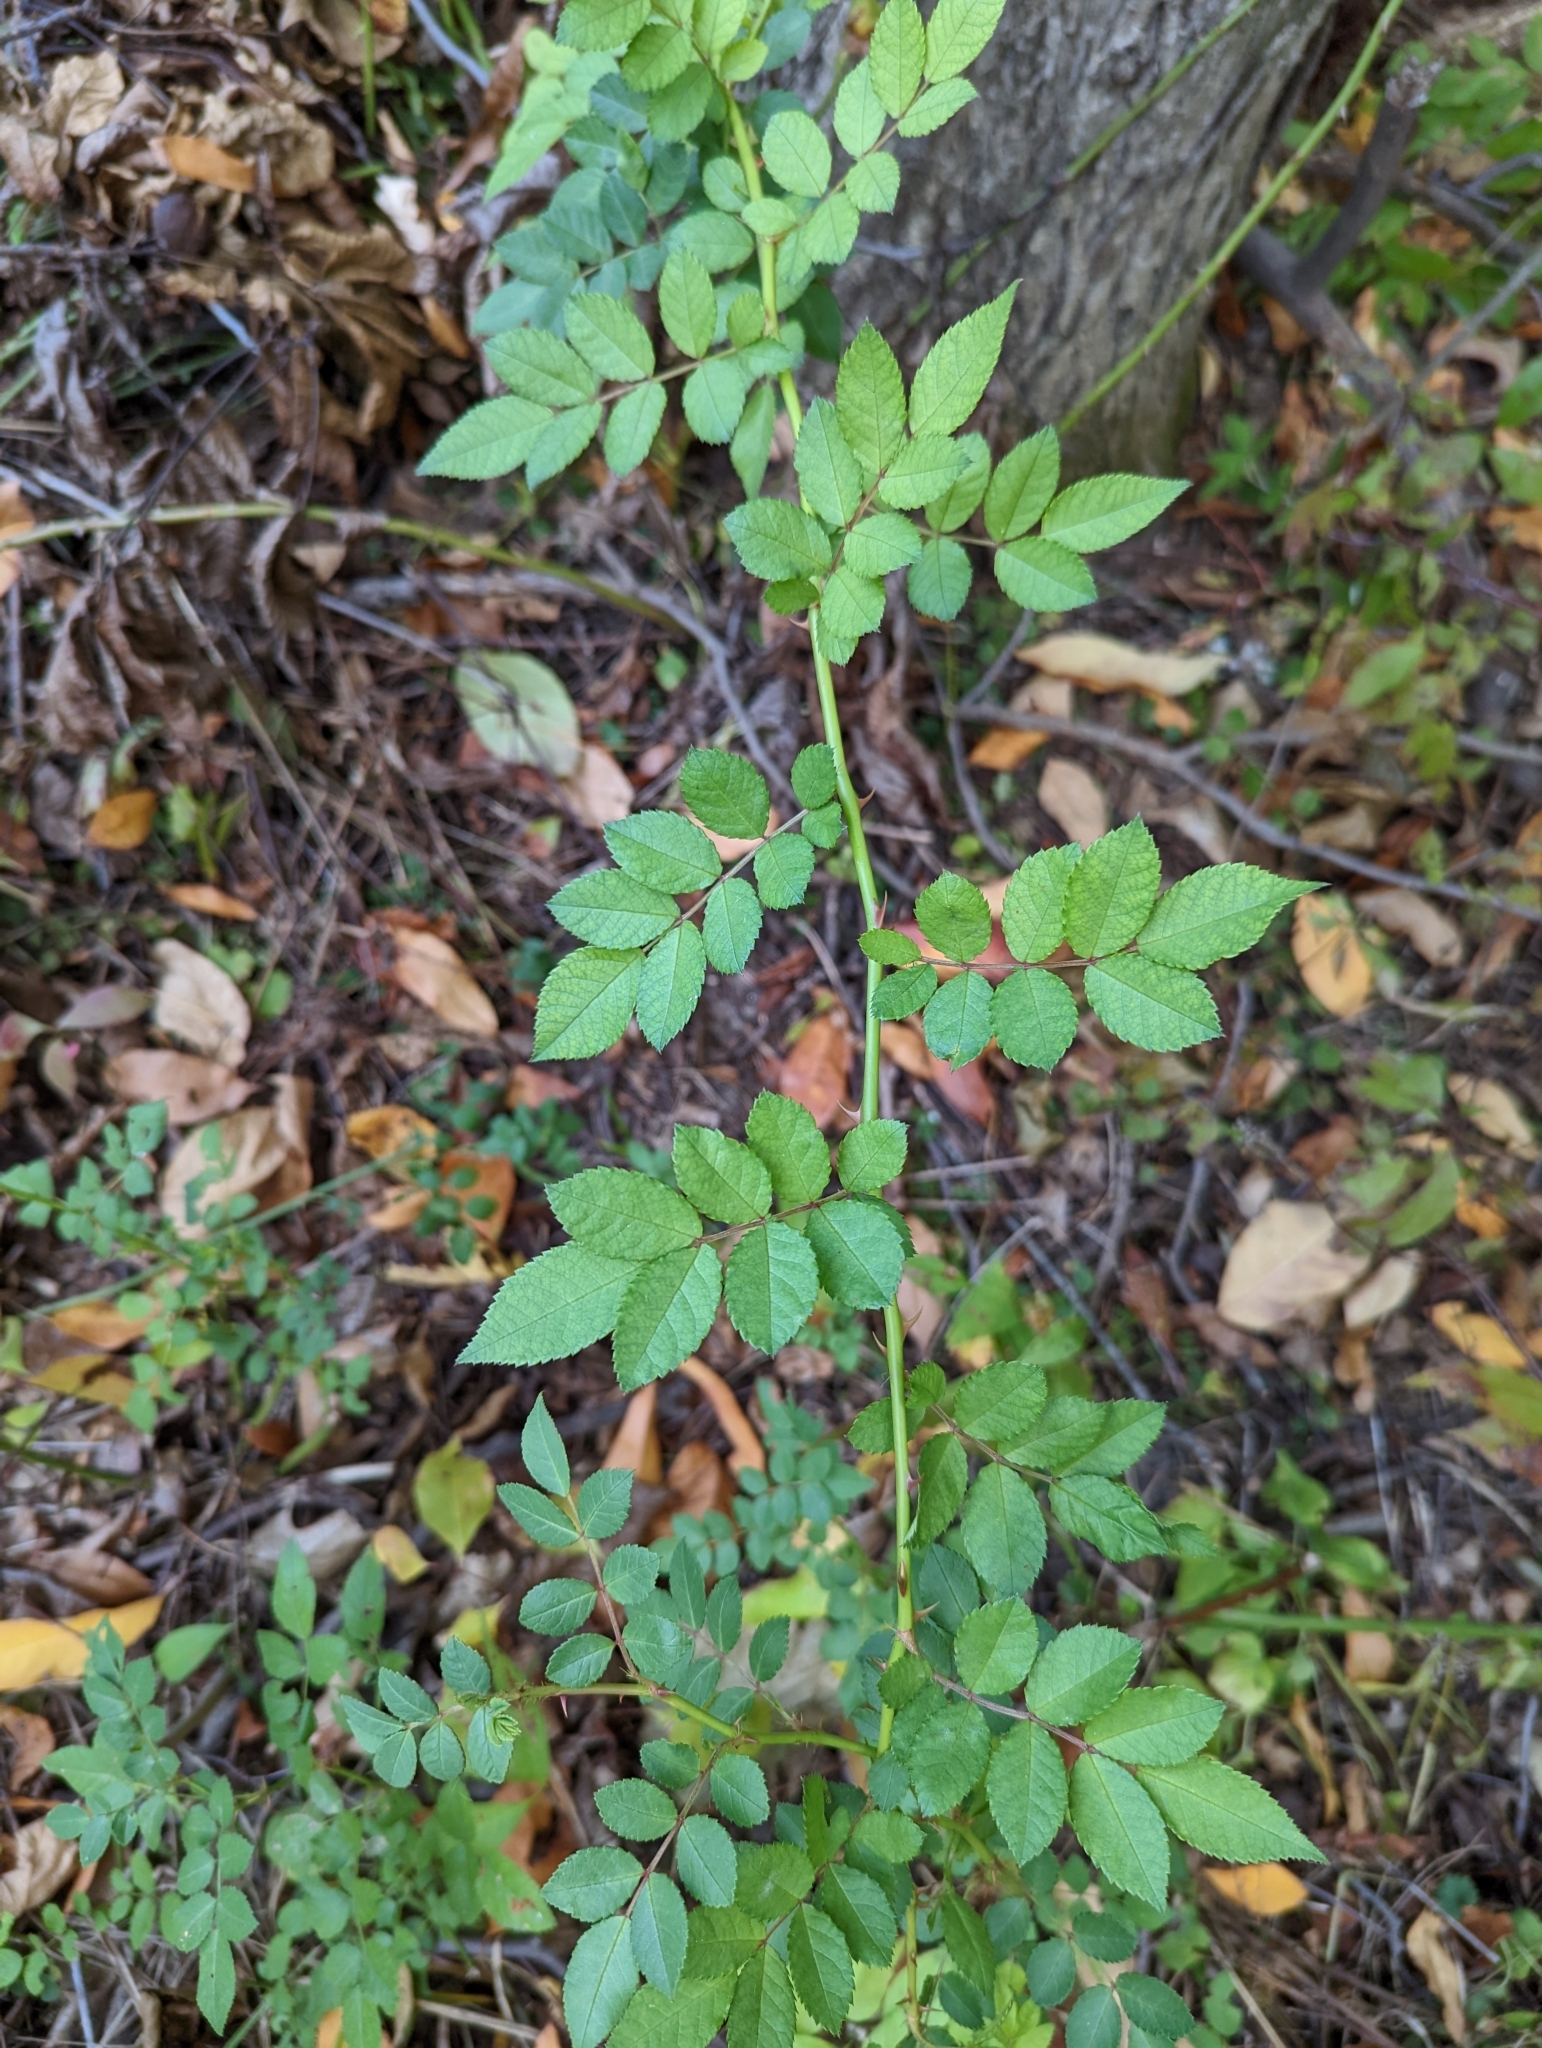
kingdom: Plantae
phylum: Tracheophyta
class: Magnoliopsida
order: Rosales
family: Rosaceae
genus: Rosa
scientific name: Rosa multiflora
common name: Multiflora rose
